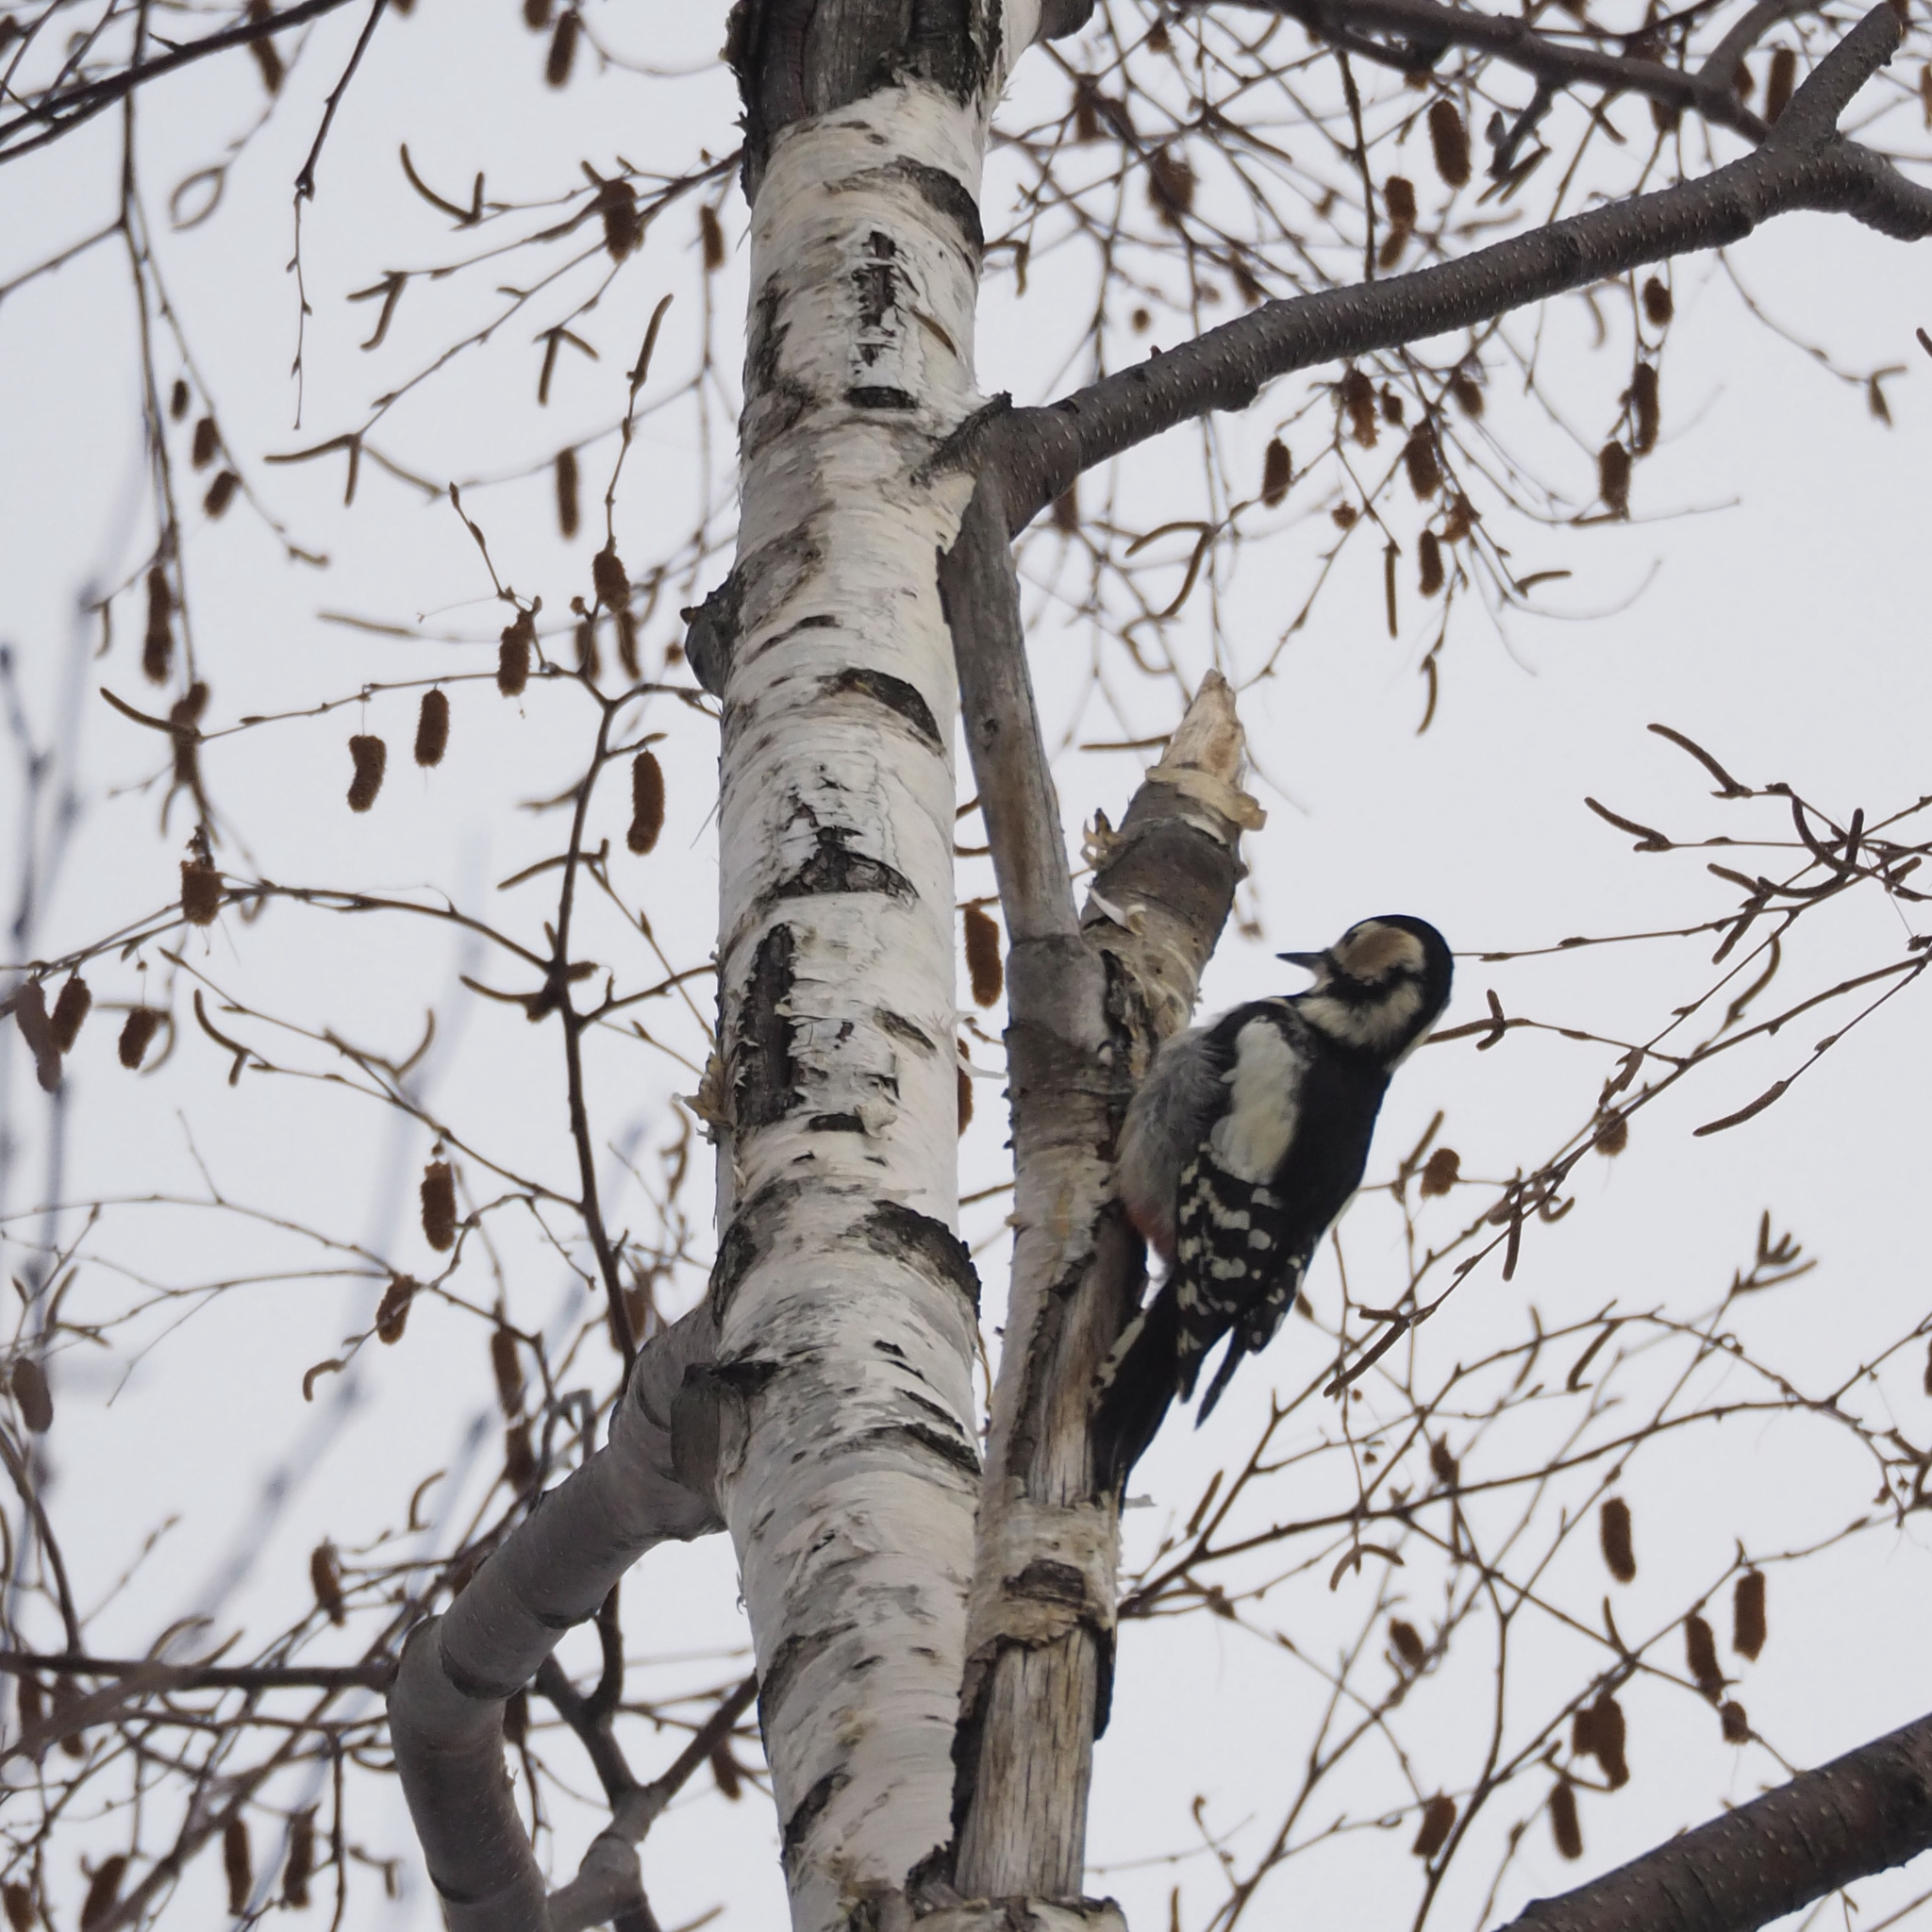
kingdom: Animalia
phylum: Chordata
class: Aves
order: Piciformes
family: Picidae
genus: Dendrocopos
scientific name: Dendrocopos major
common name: Great spotted woodpecker
